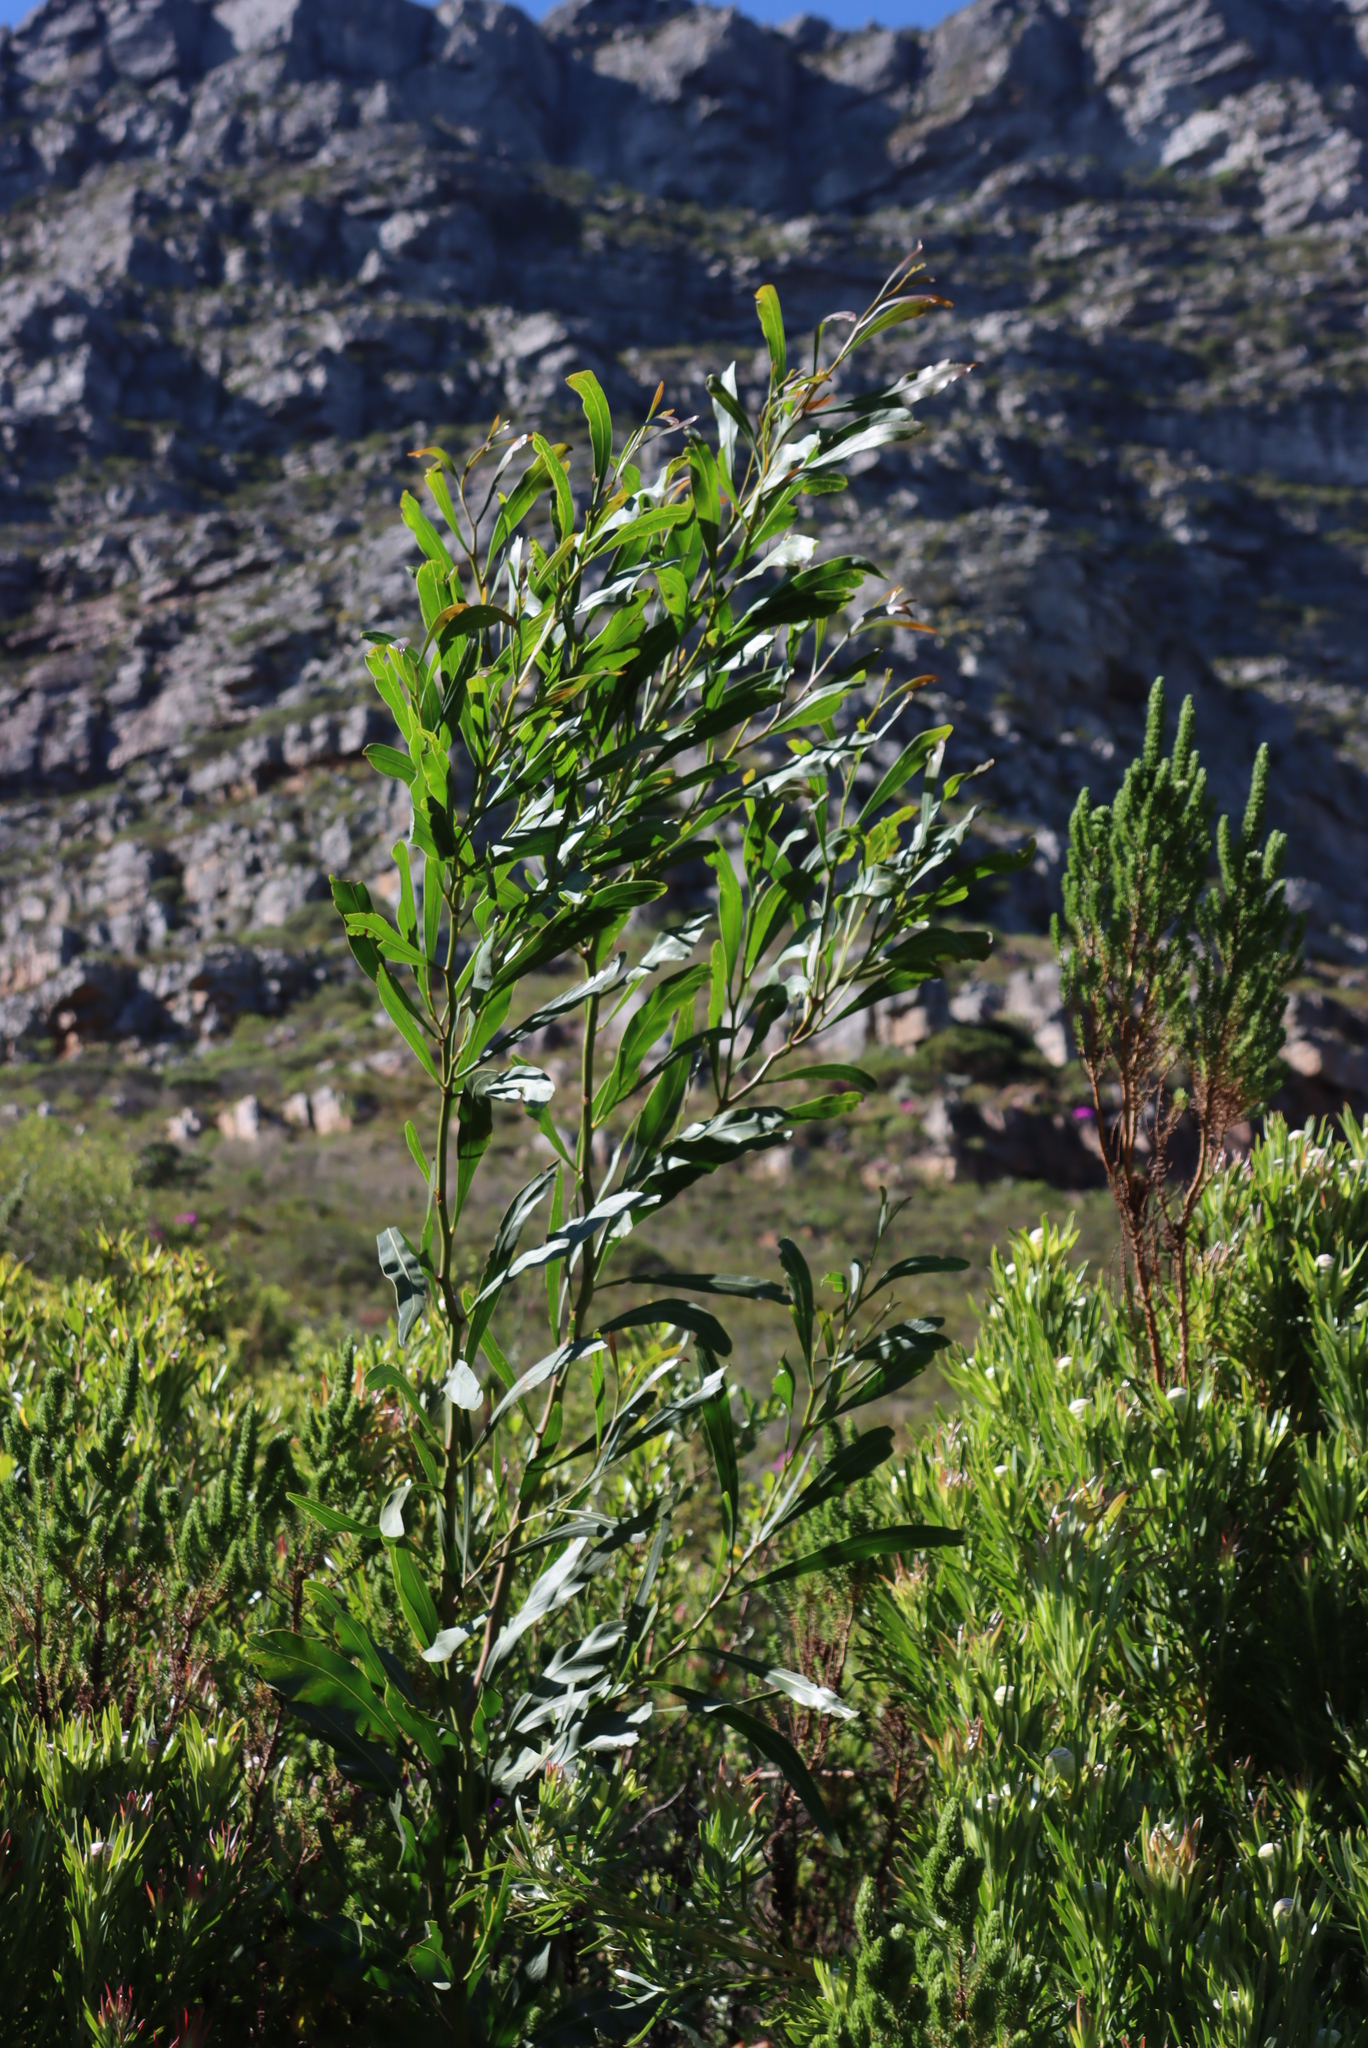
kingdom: Plantae
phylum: Tracheophyta
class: Magnoliopsida
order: Fabales
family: Fabaceae
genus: Acacia
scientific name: Acacia saligna
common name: Orange wattle
